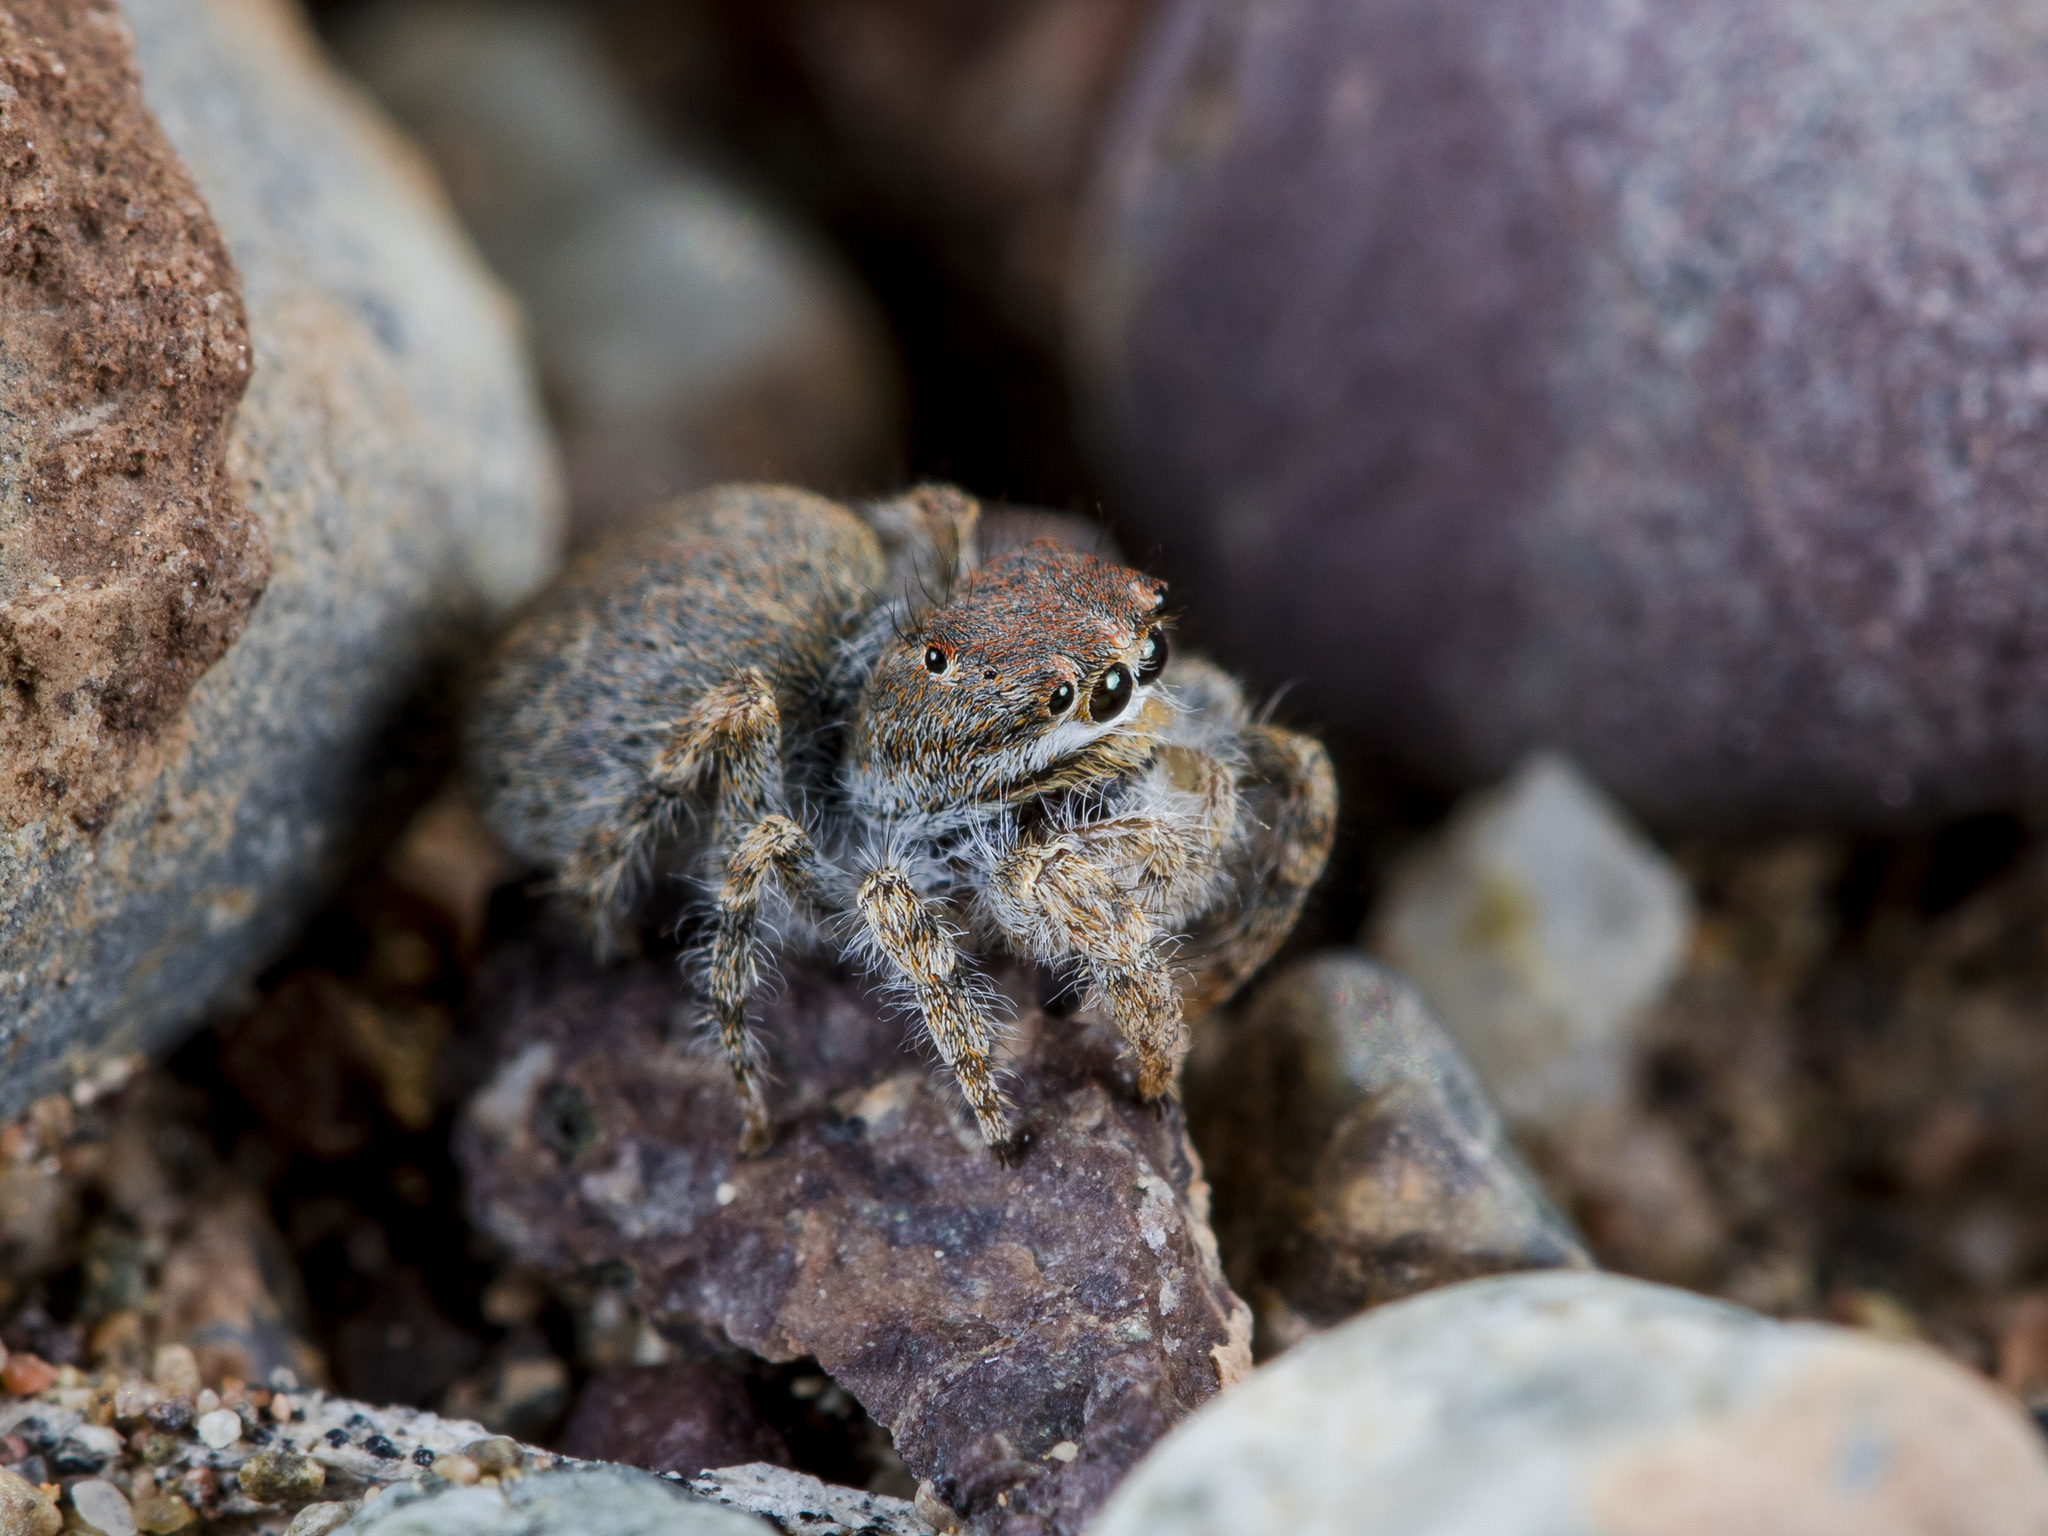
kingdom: Animalia
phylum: Arthropoda
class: Arachnida
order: Araneae
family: Salticidae
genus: Yllenus
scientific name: Yllenus zyuzini
